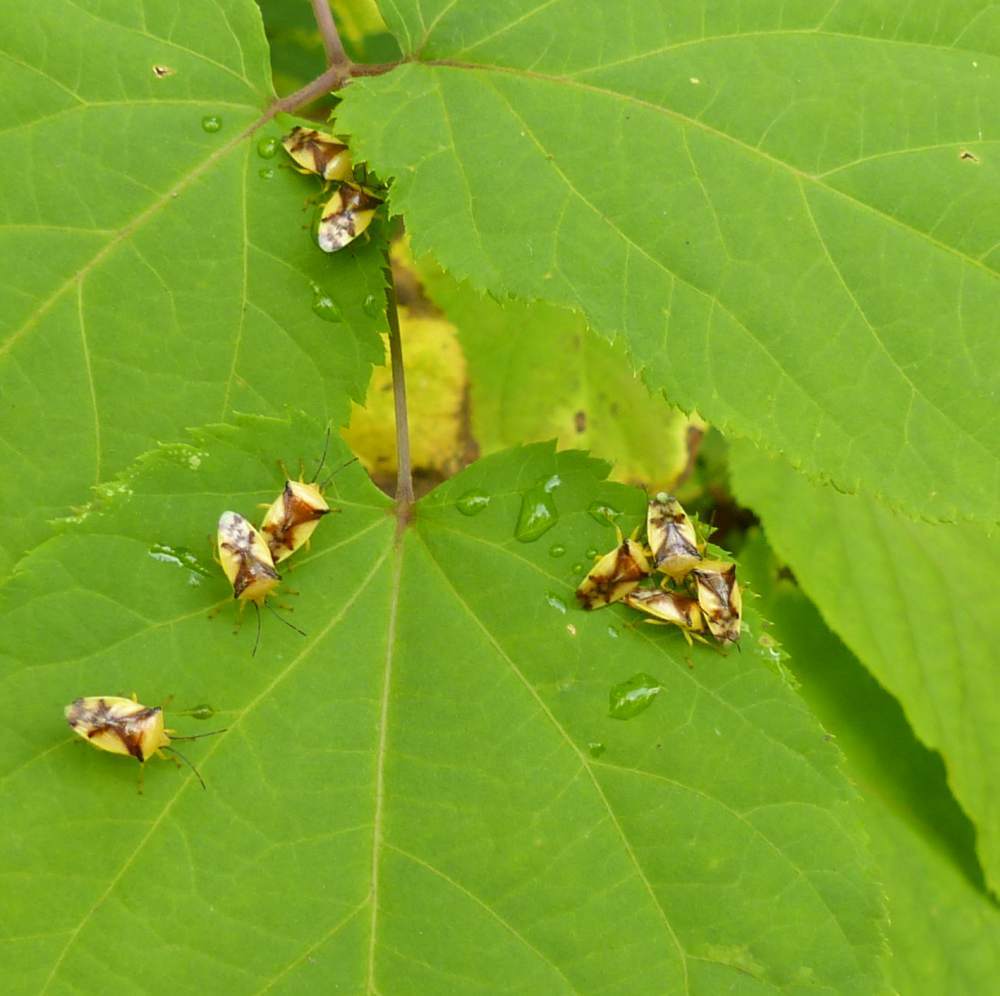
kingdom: Animalia
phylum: Arthropoda
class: Insecta
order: Hemiptera
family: Acanthosomatidae
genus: Elasmostethus
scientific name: Elasmostethus atricornis
